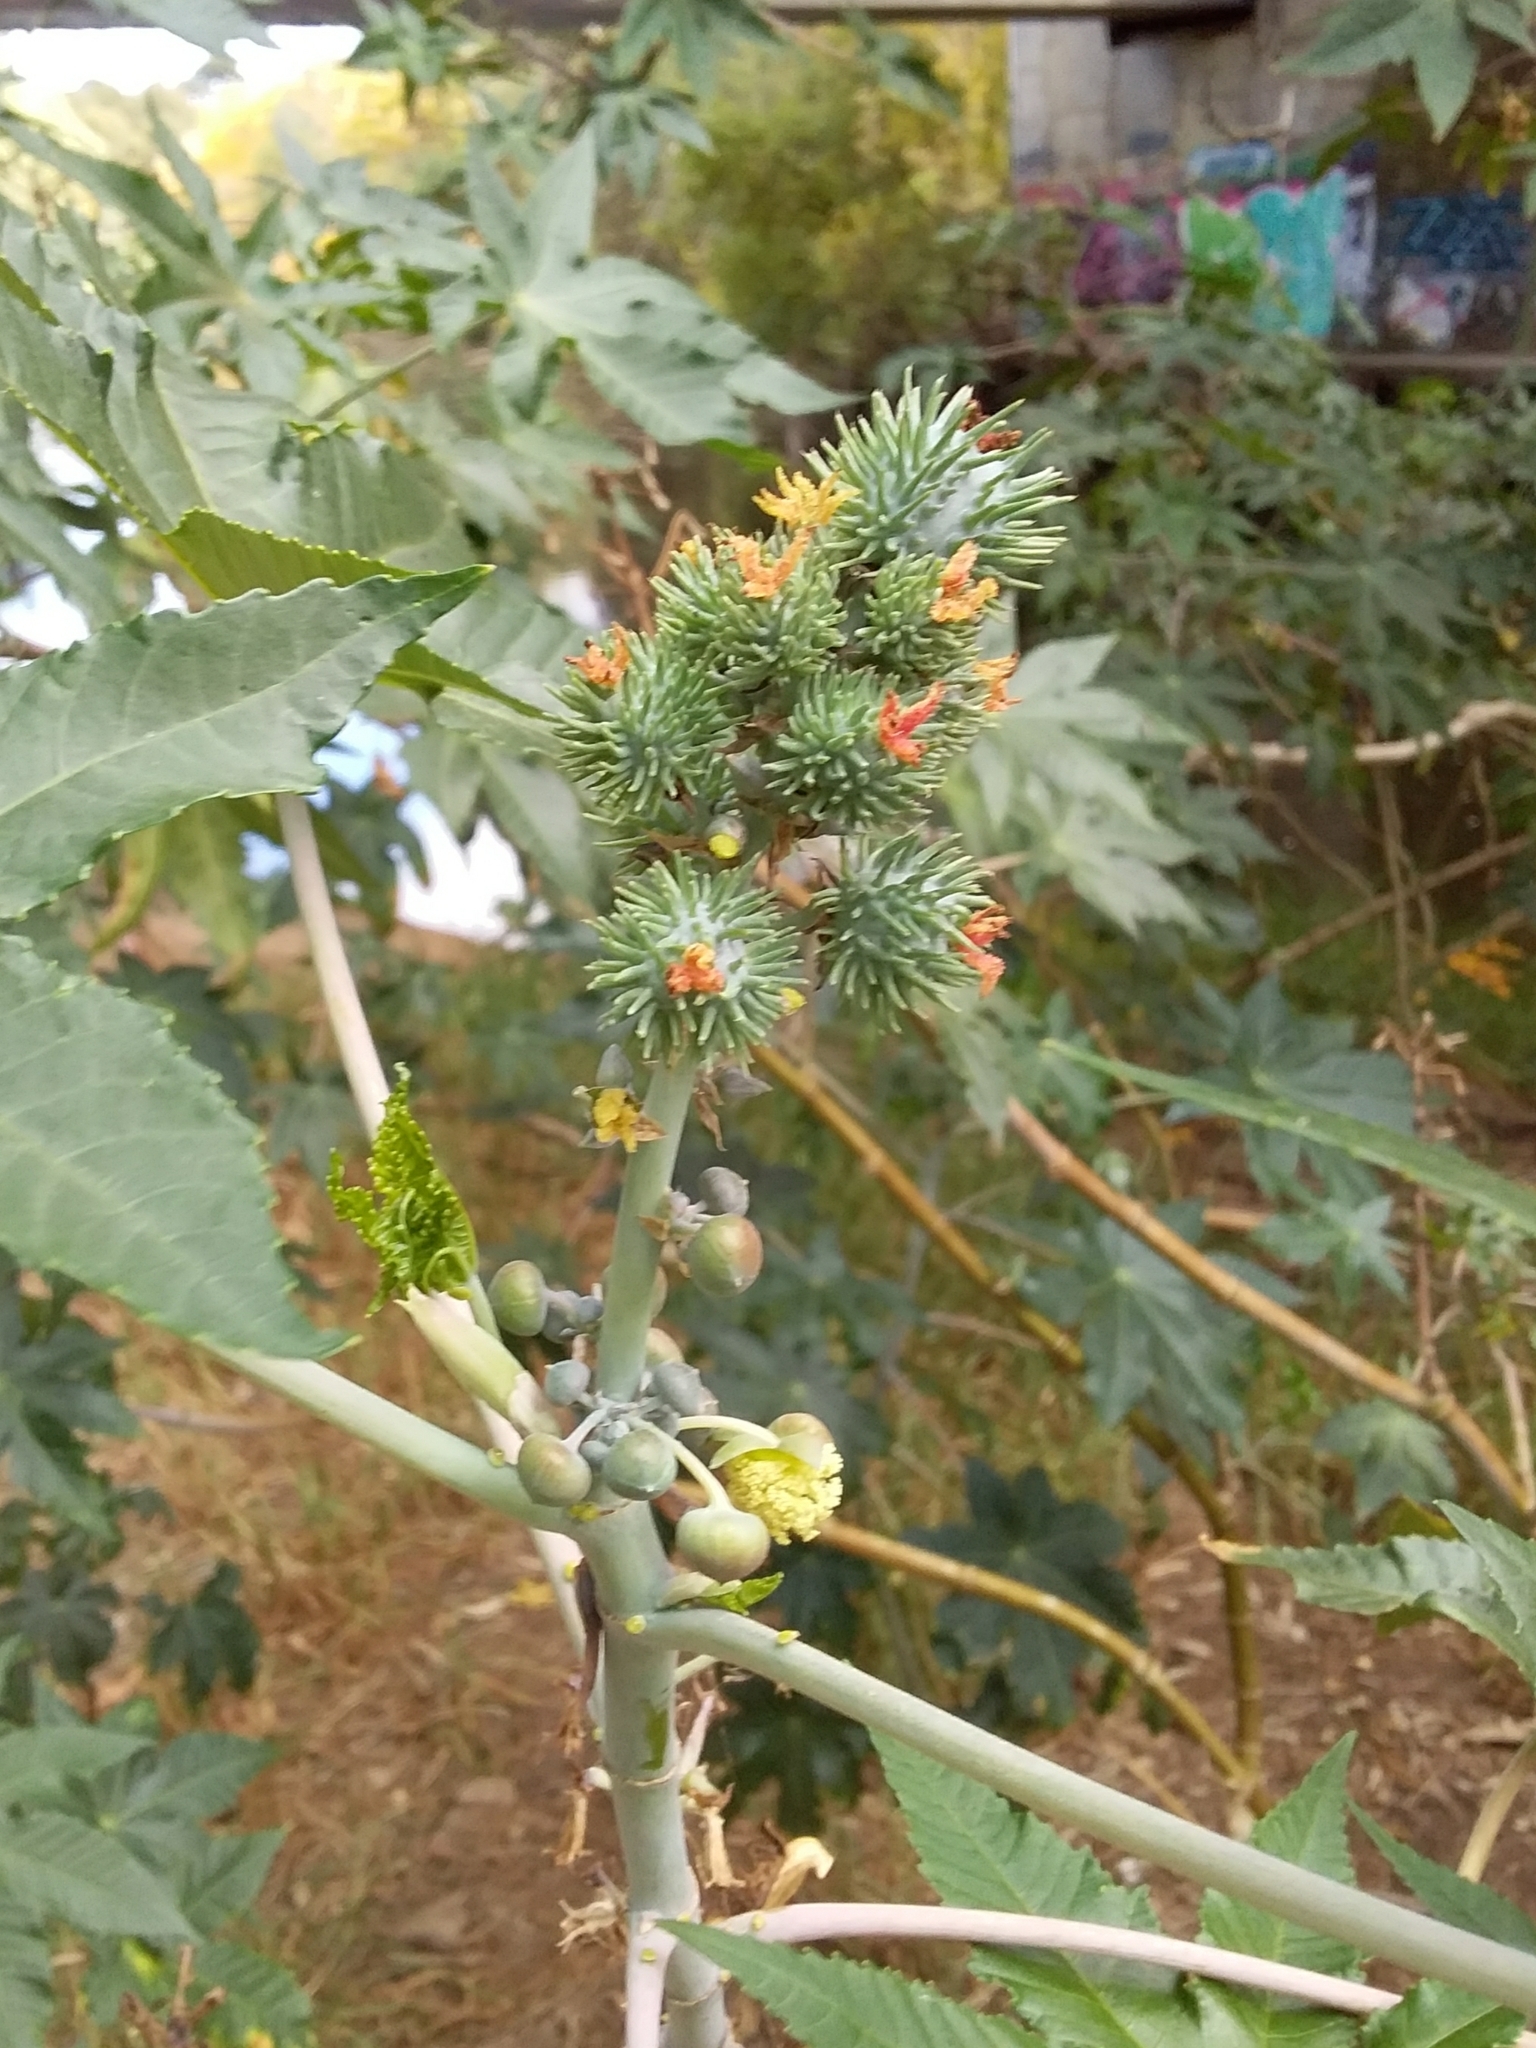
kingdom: Plantae
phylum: Tracheophyta
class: Magnoliopsida
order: Malpighiales
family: Euphorbiaceae
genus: Ricinus
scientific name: Ricinus communis
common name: Castor-oil-plant
